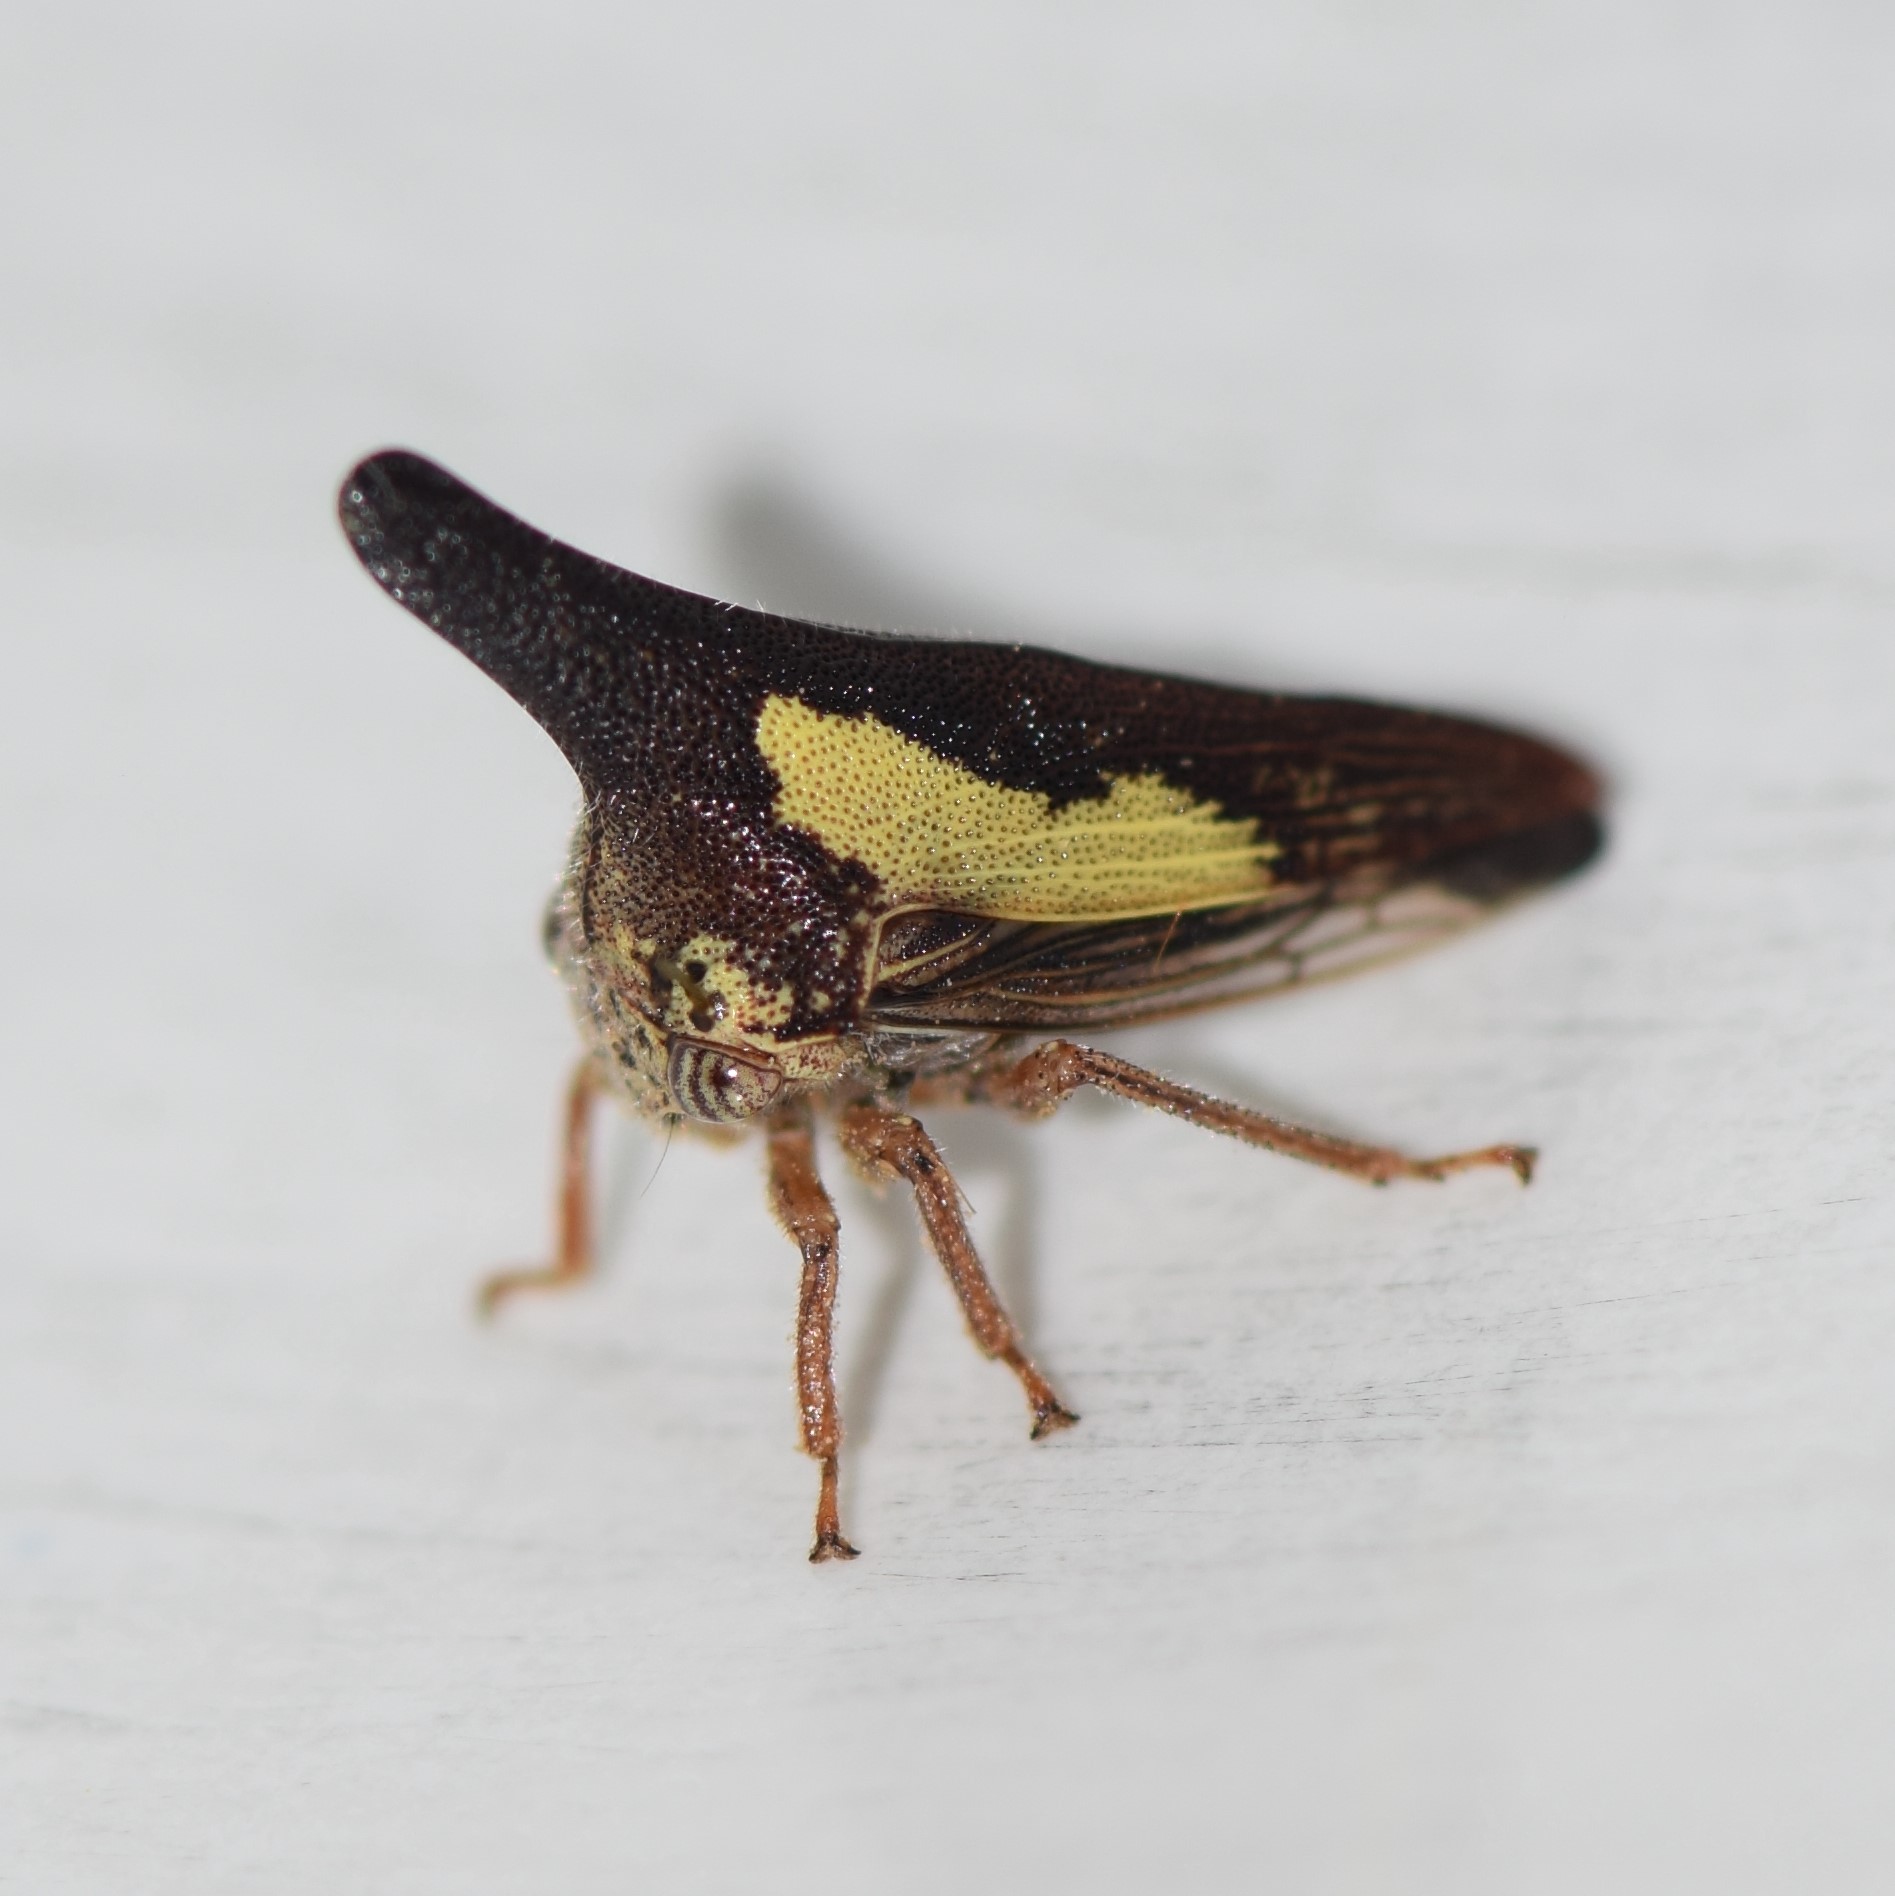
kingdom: Animalia
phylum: Arthropoda
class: Insecta
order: Hemiptera
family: Membracidae
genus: Thelia
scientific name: Thelia bimaculata
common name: Locust treehopper
